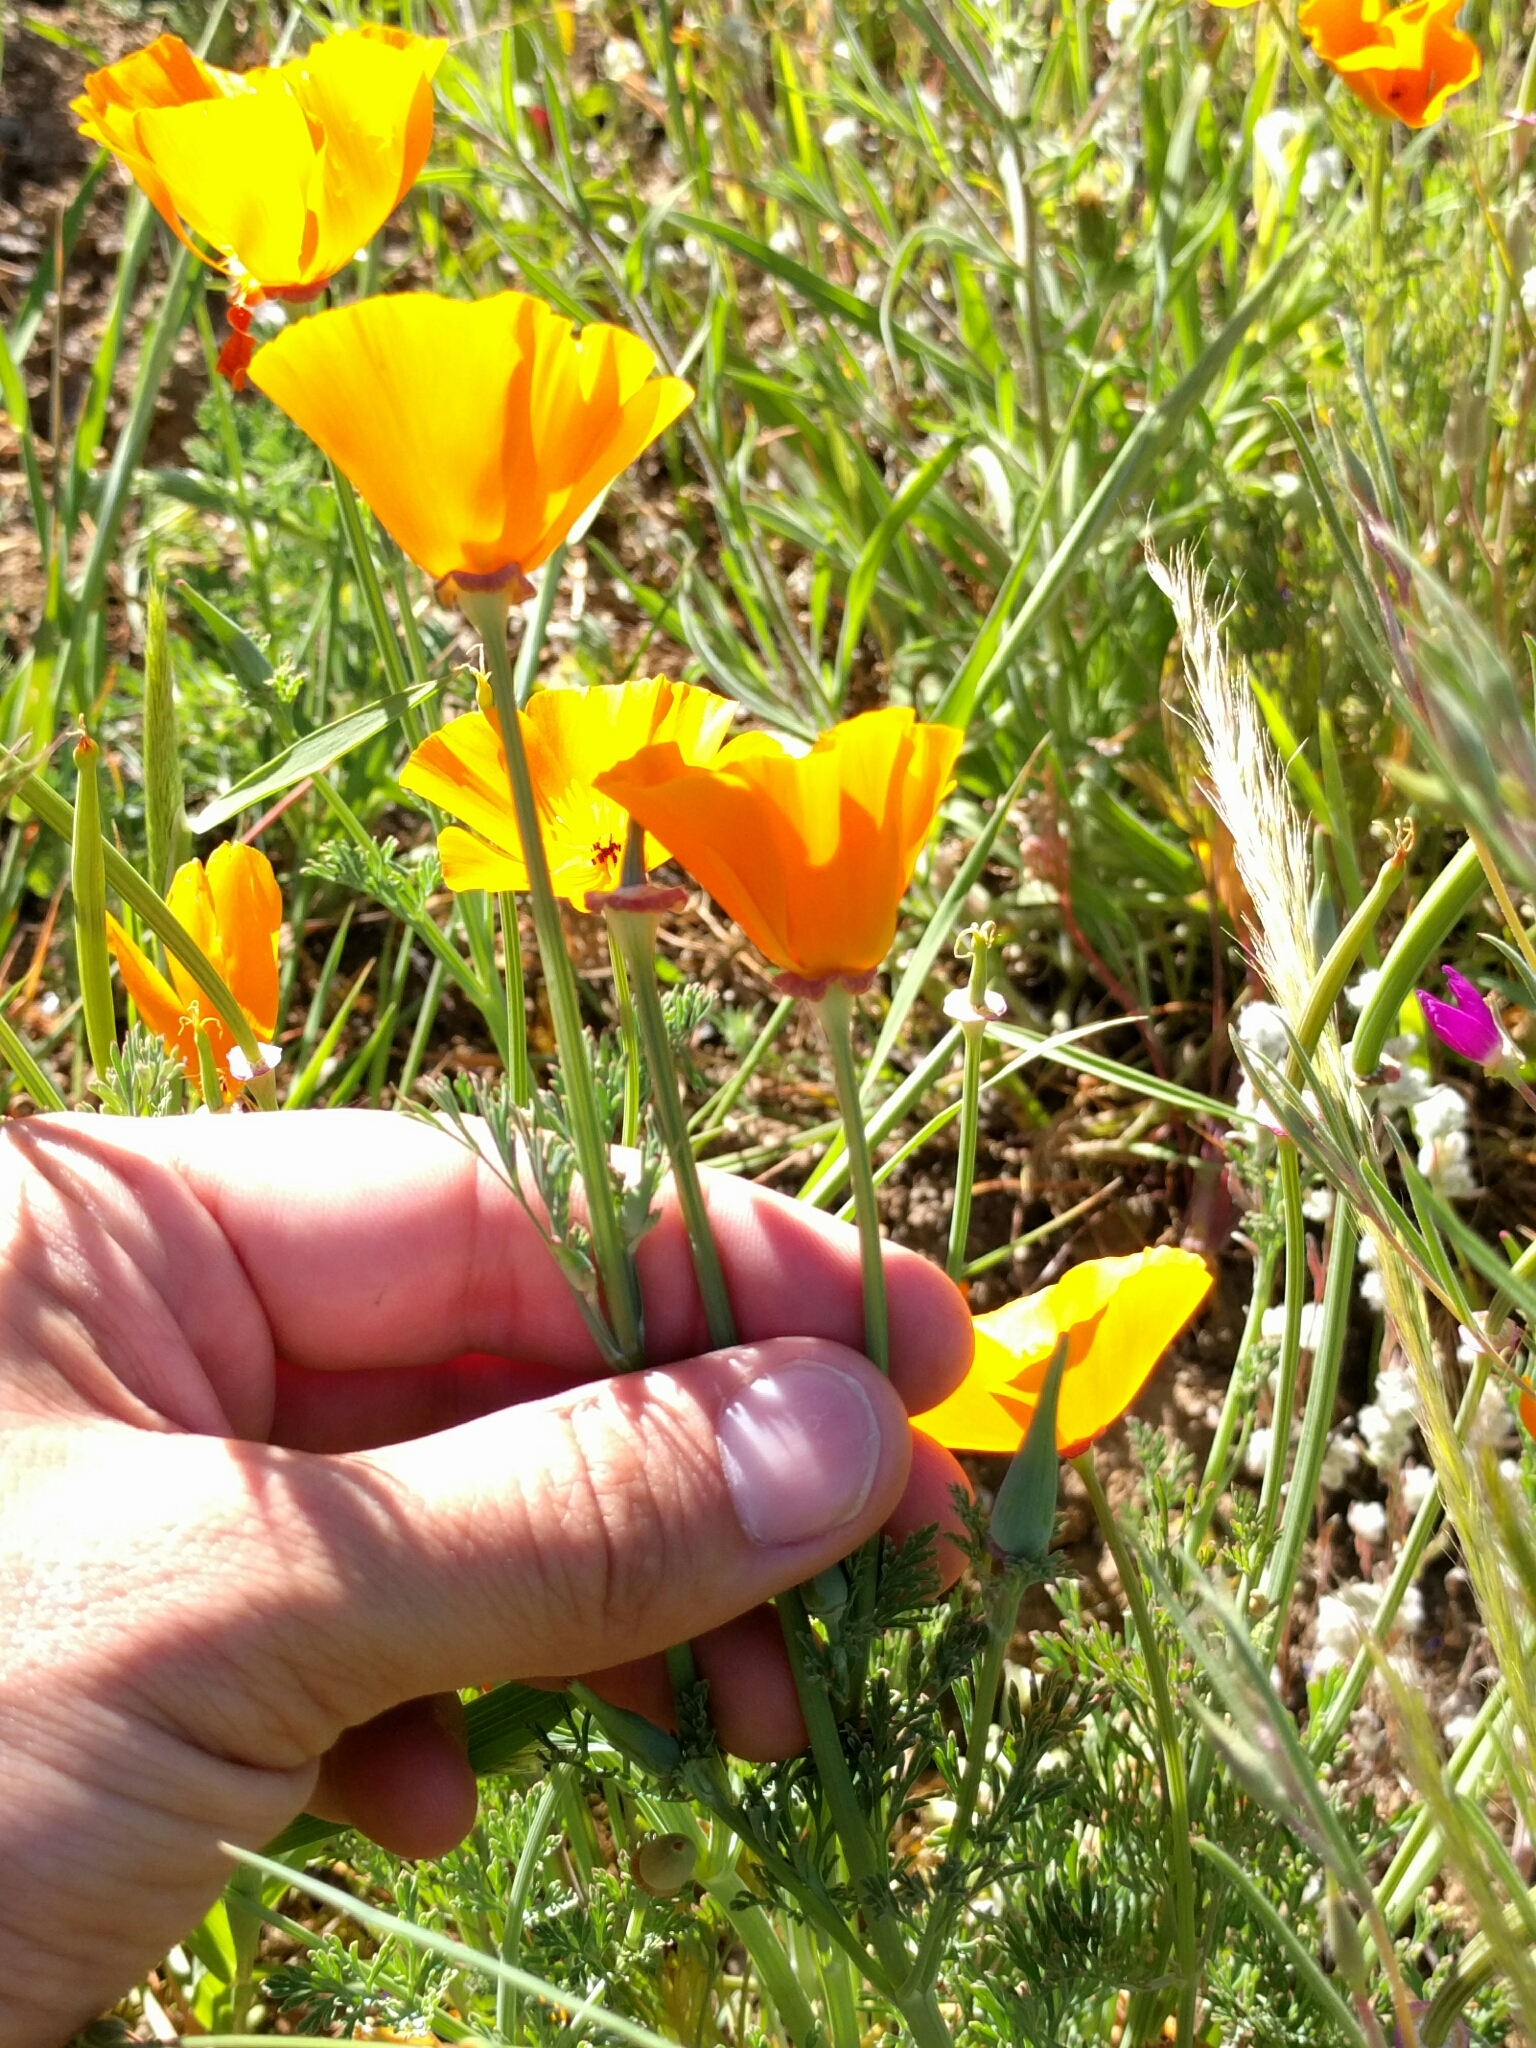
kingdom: Plantae
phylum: Tracheophyta
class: Magnoliopsida
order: Ranunculales
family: Papaveraceae
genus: Eschscholzia
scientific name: Eschscholzia californica
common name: California poppy
